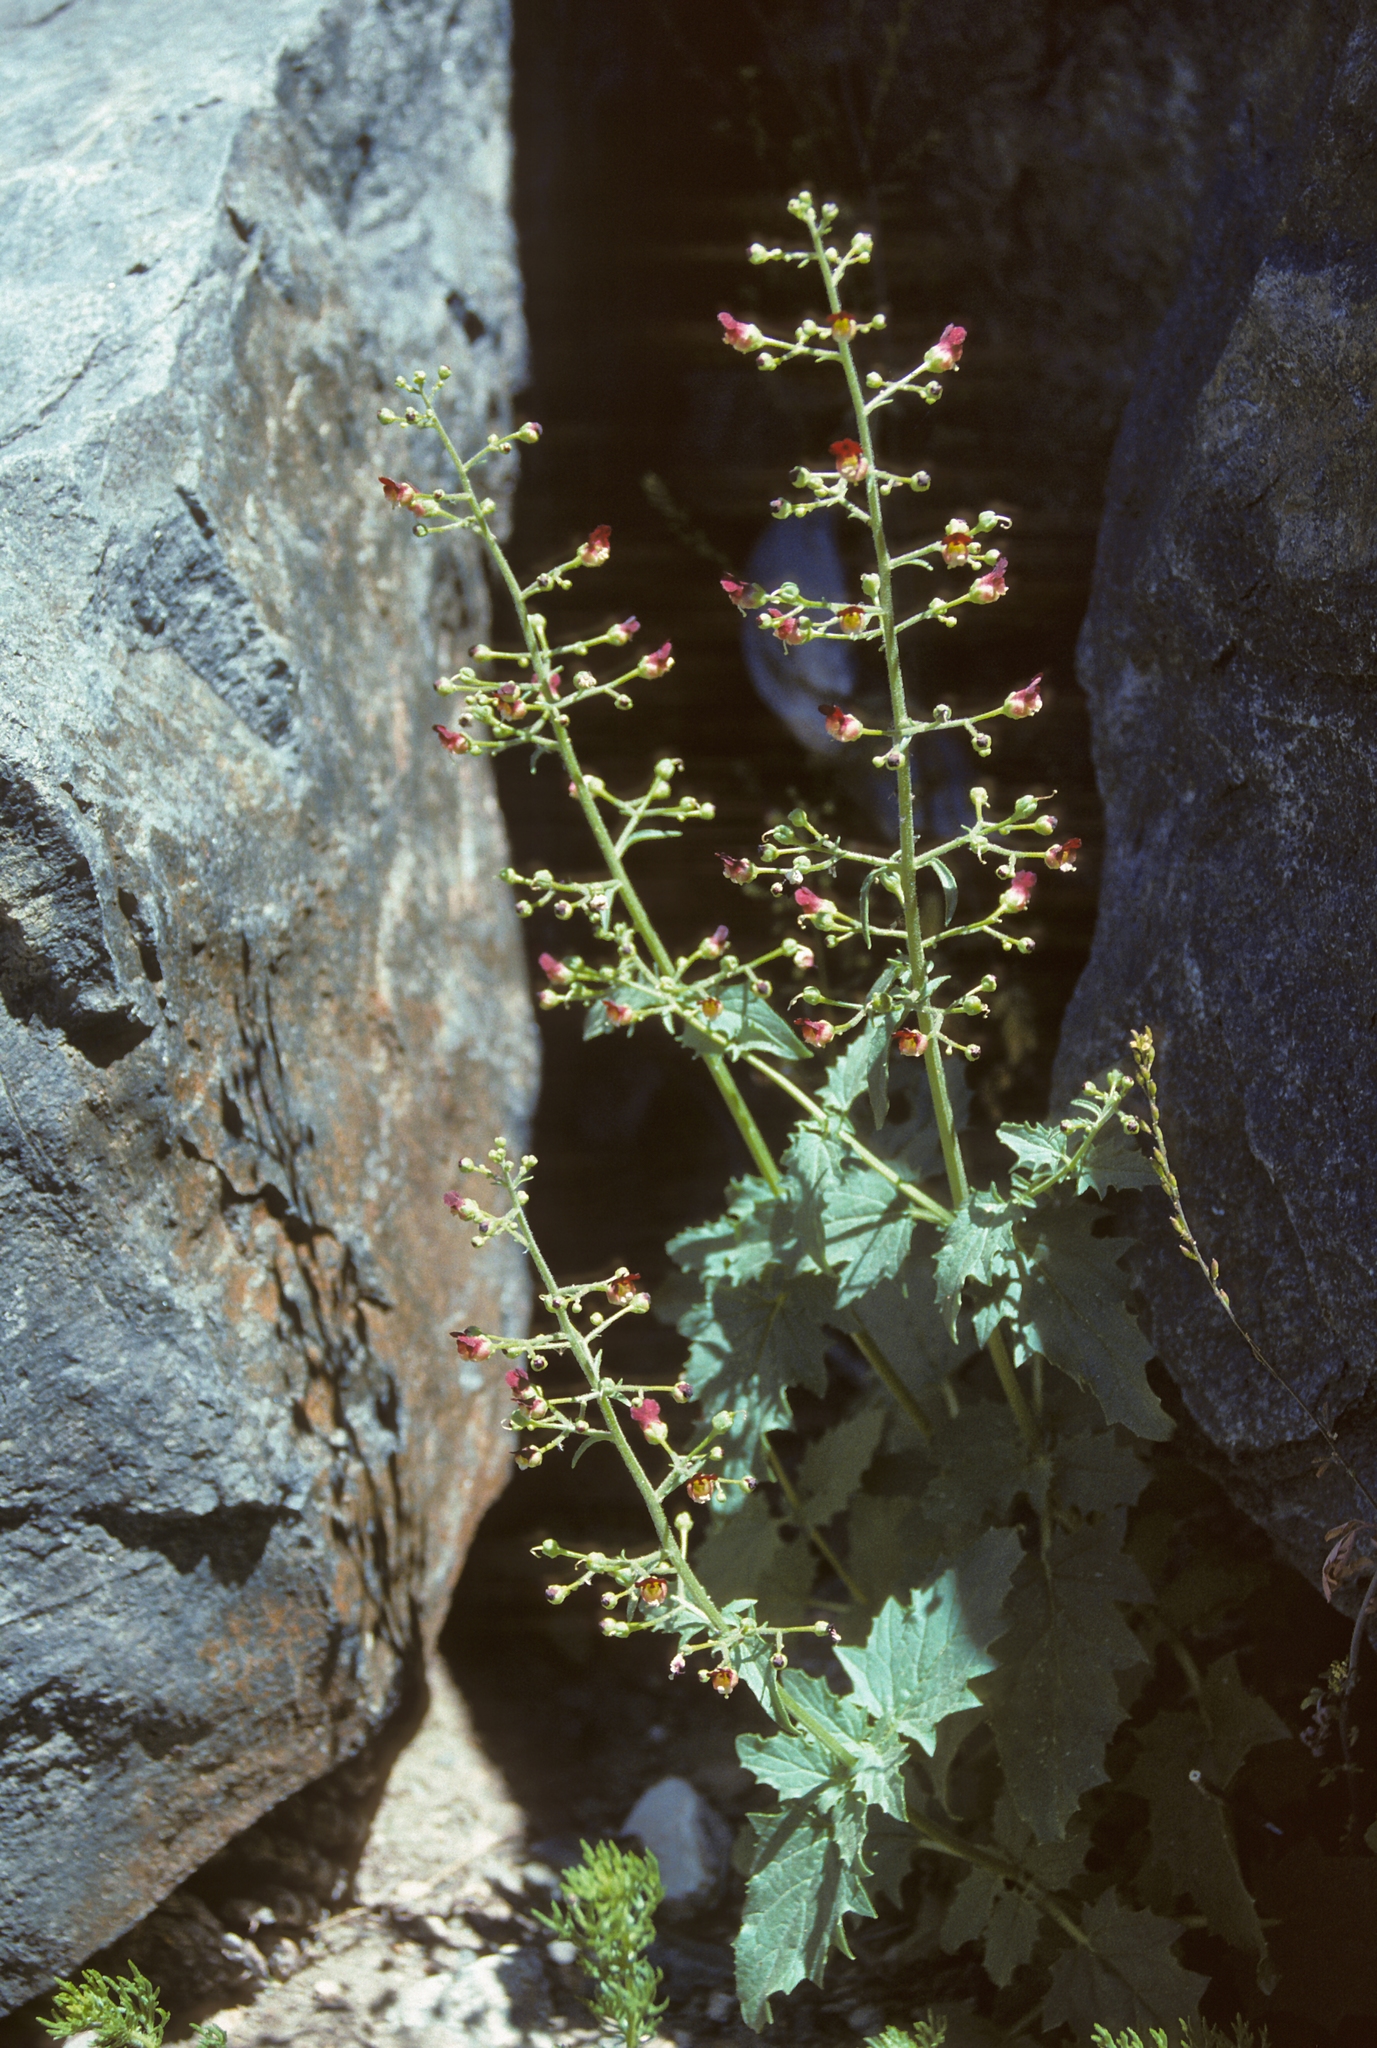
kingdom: Plantae
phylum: Tracheophyta
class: Magnoliopsida
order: Lamiales
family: Scrophulariaceae
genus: Scrophularia
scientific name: Scrophularia desertorum
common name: Desert figwort
